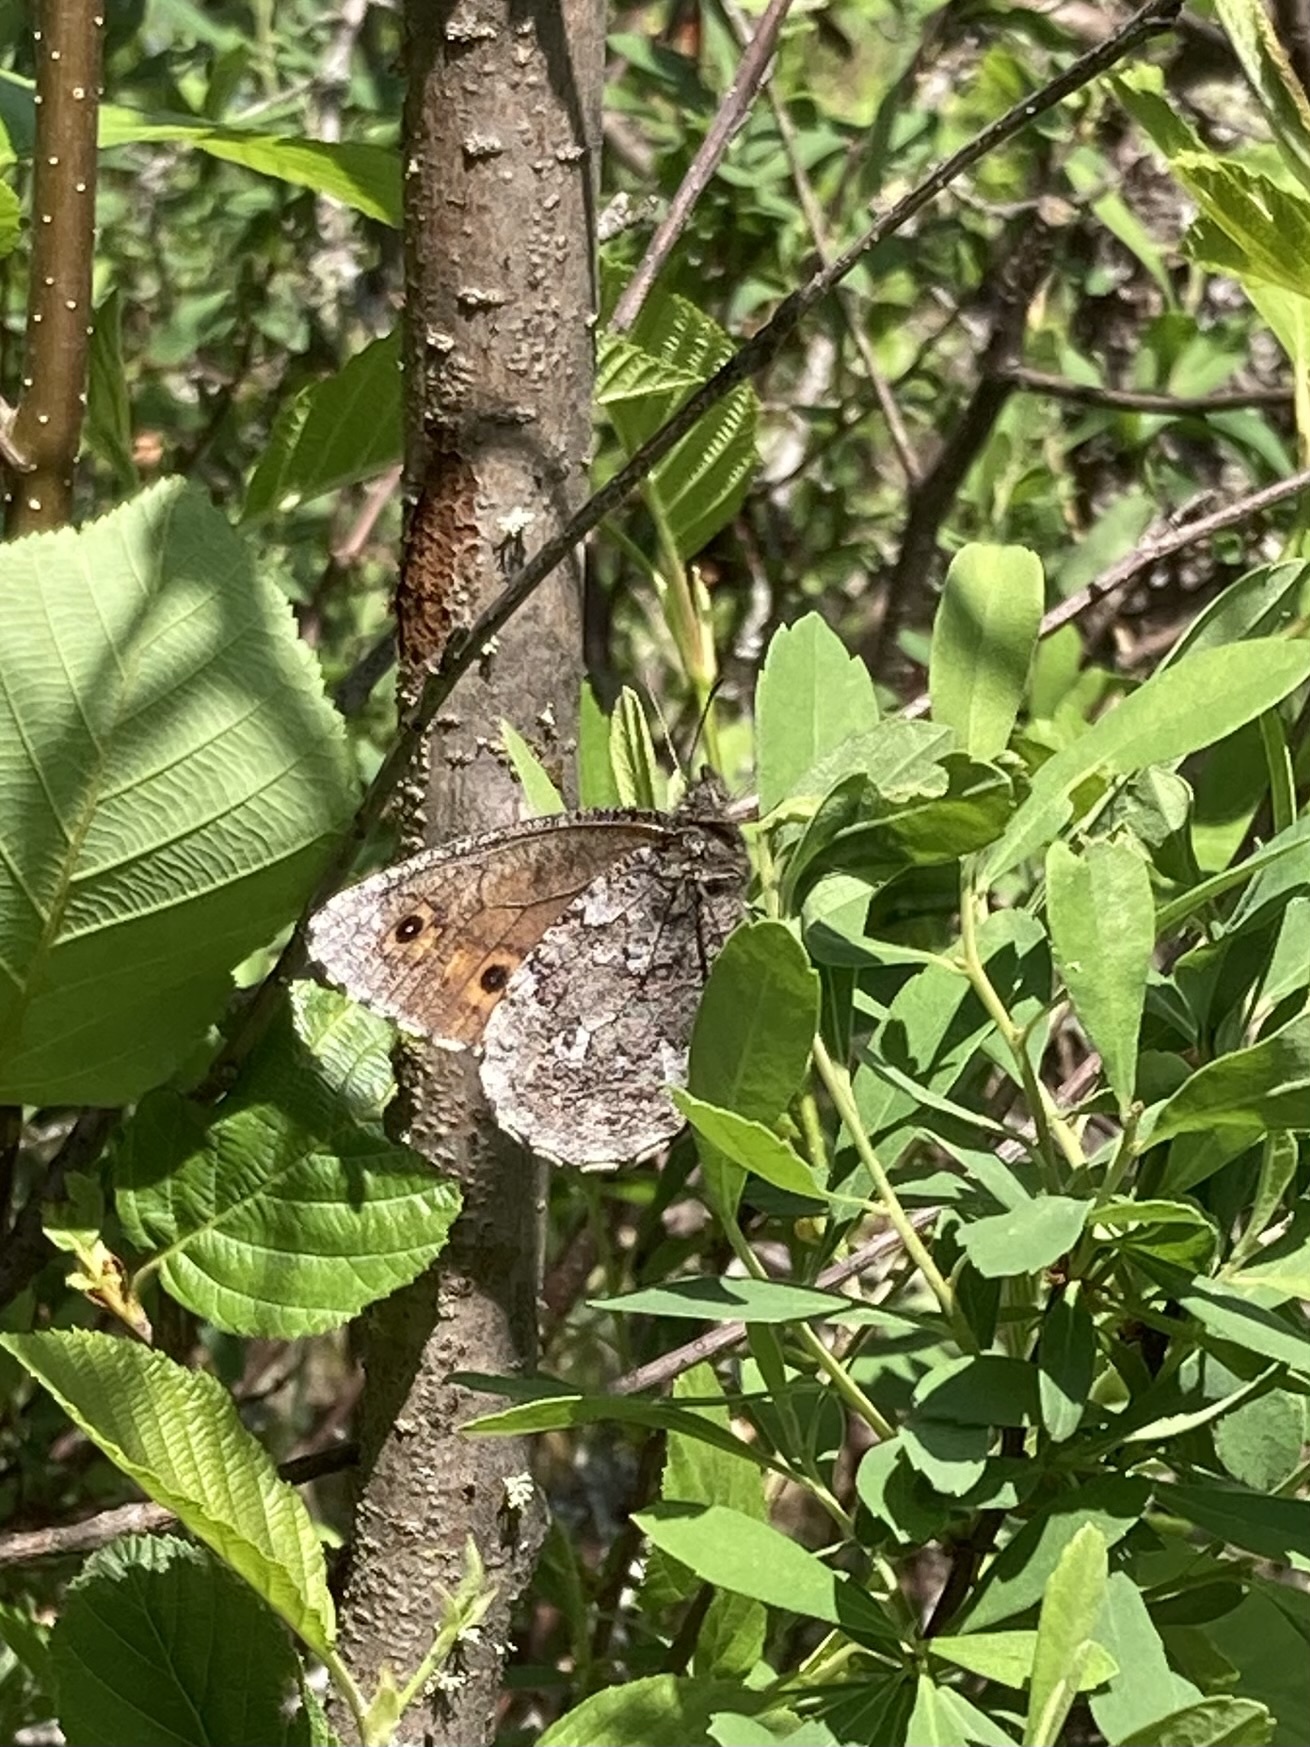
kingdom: Animalia
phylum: Arthropoda
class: Insecta
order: Lepidoptera
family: Nymphalidae
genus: Oeneis
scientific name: Oeneis jutta
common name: Baltic grayling
